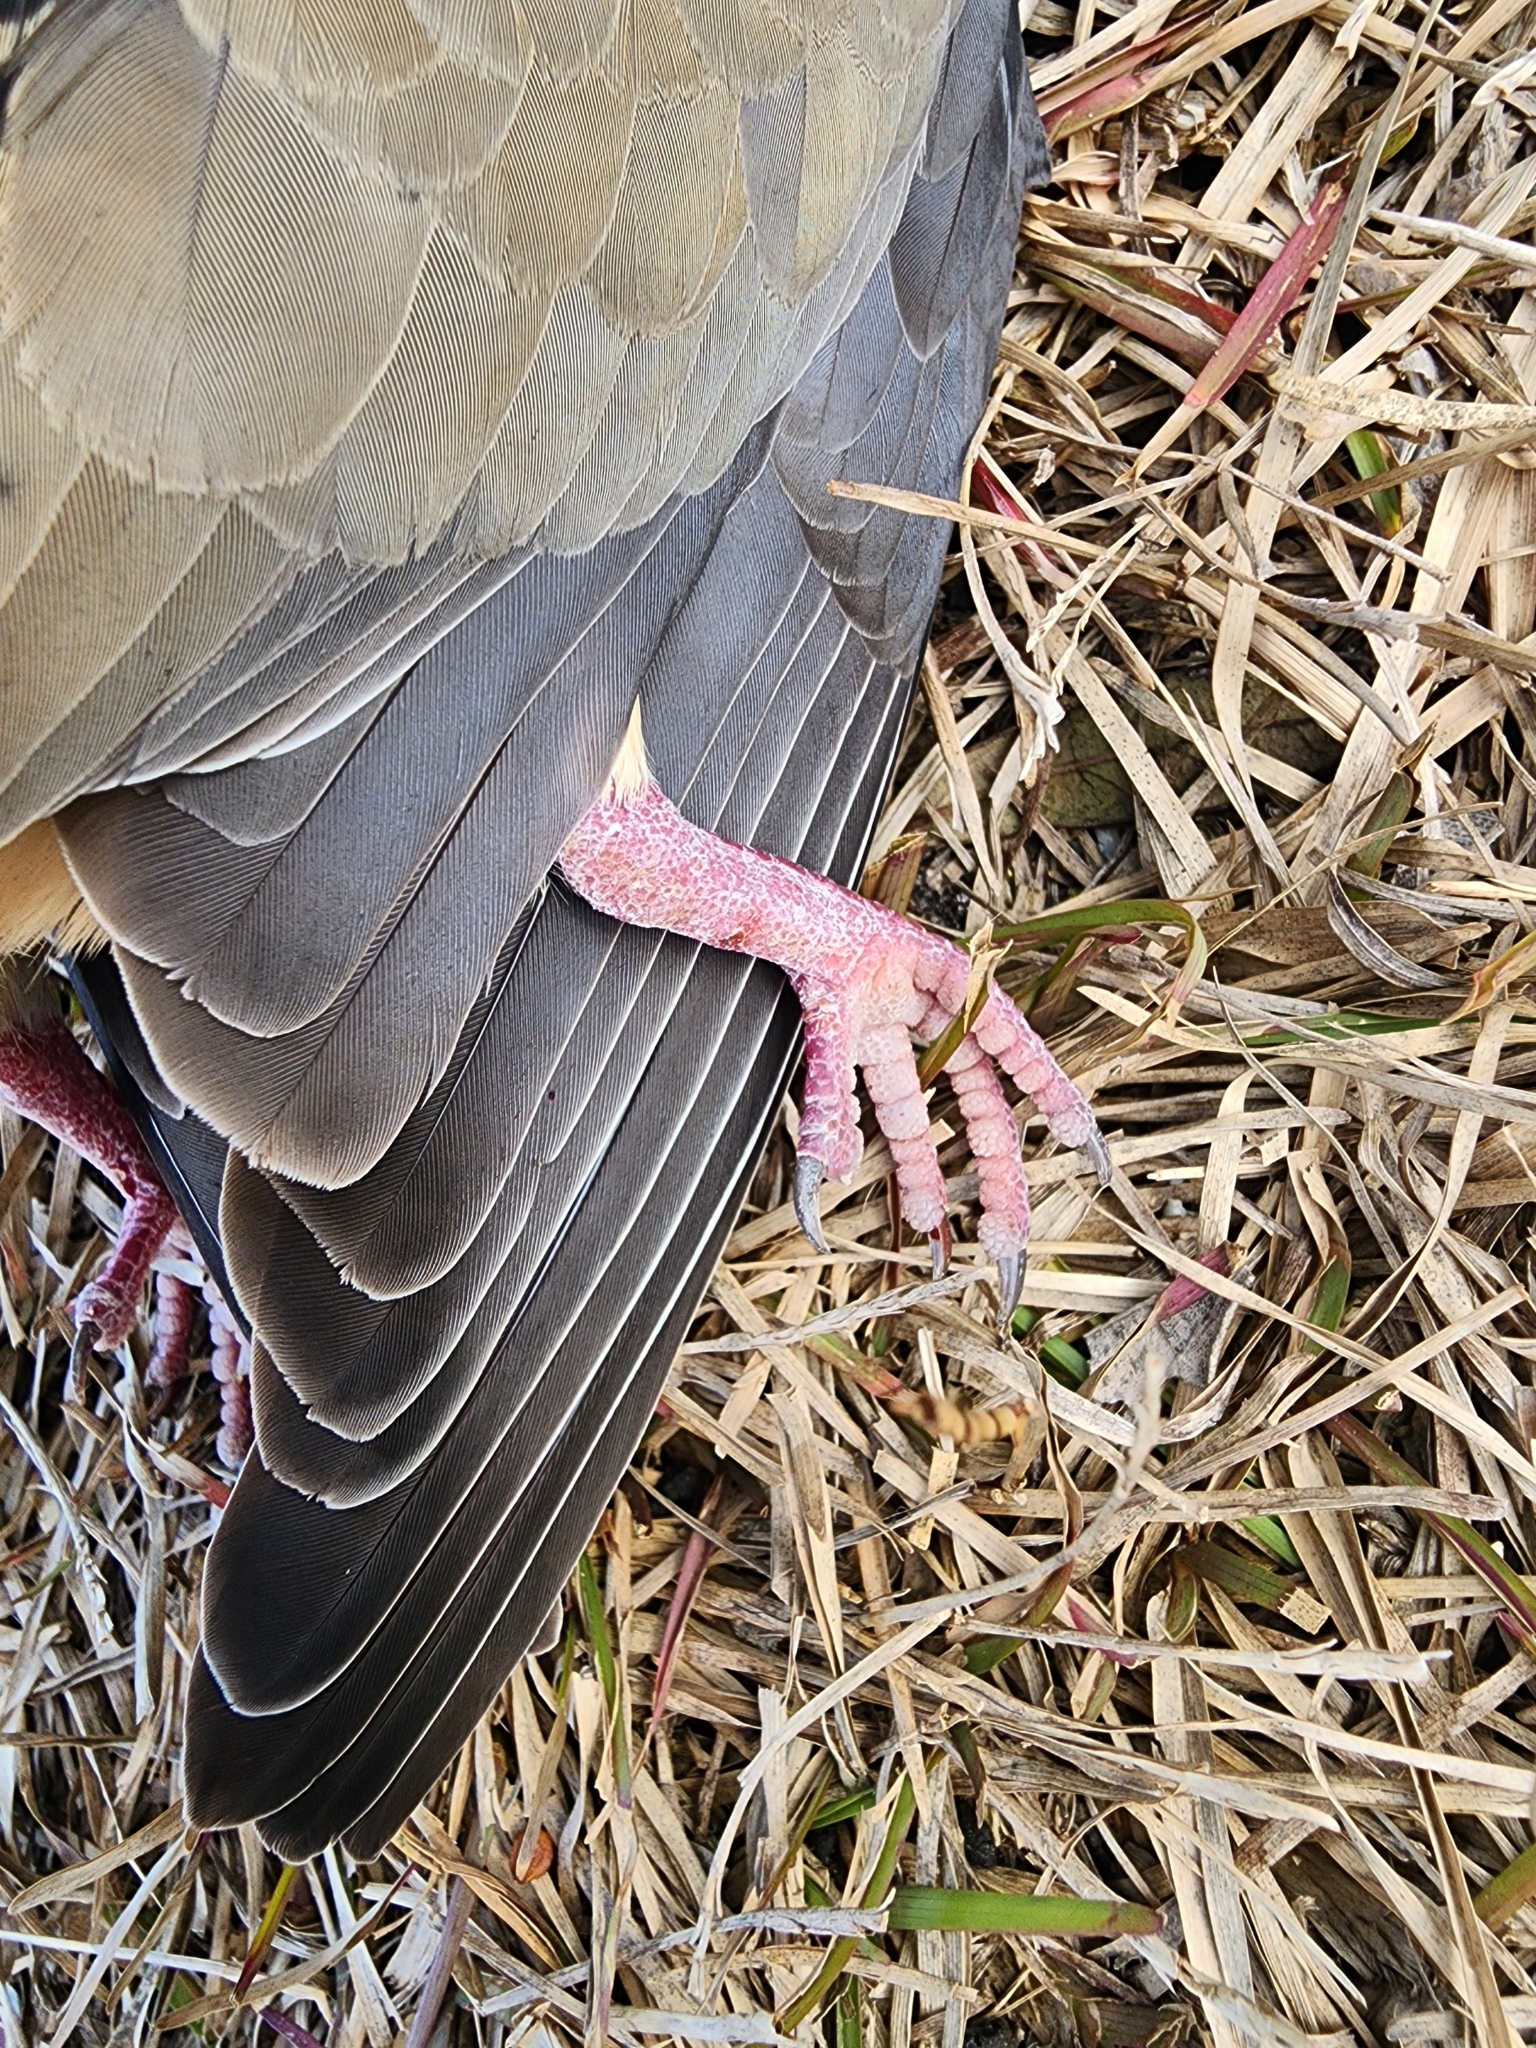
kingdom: Animalia
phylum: Chordata
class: Aves
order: Columbiformes
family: Columbidae
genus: Zenaida
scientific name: Zenaida macroura
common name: Mourning dove
